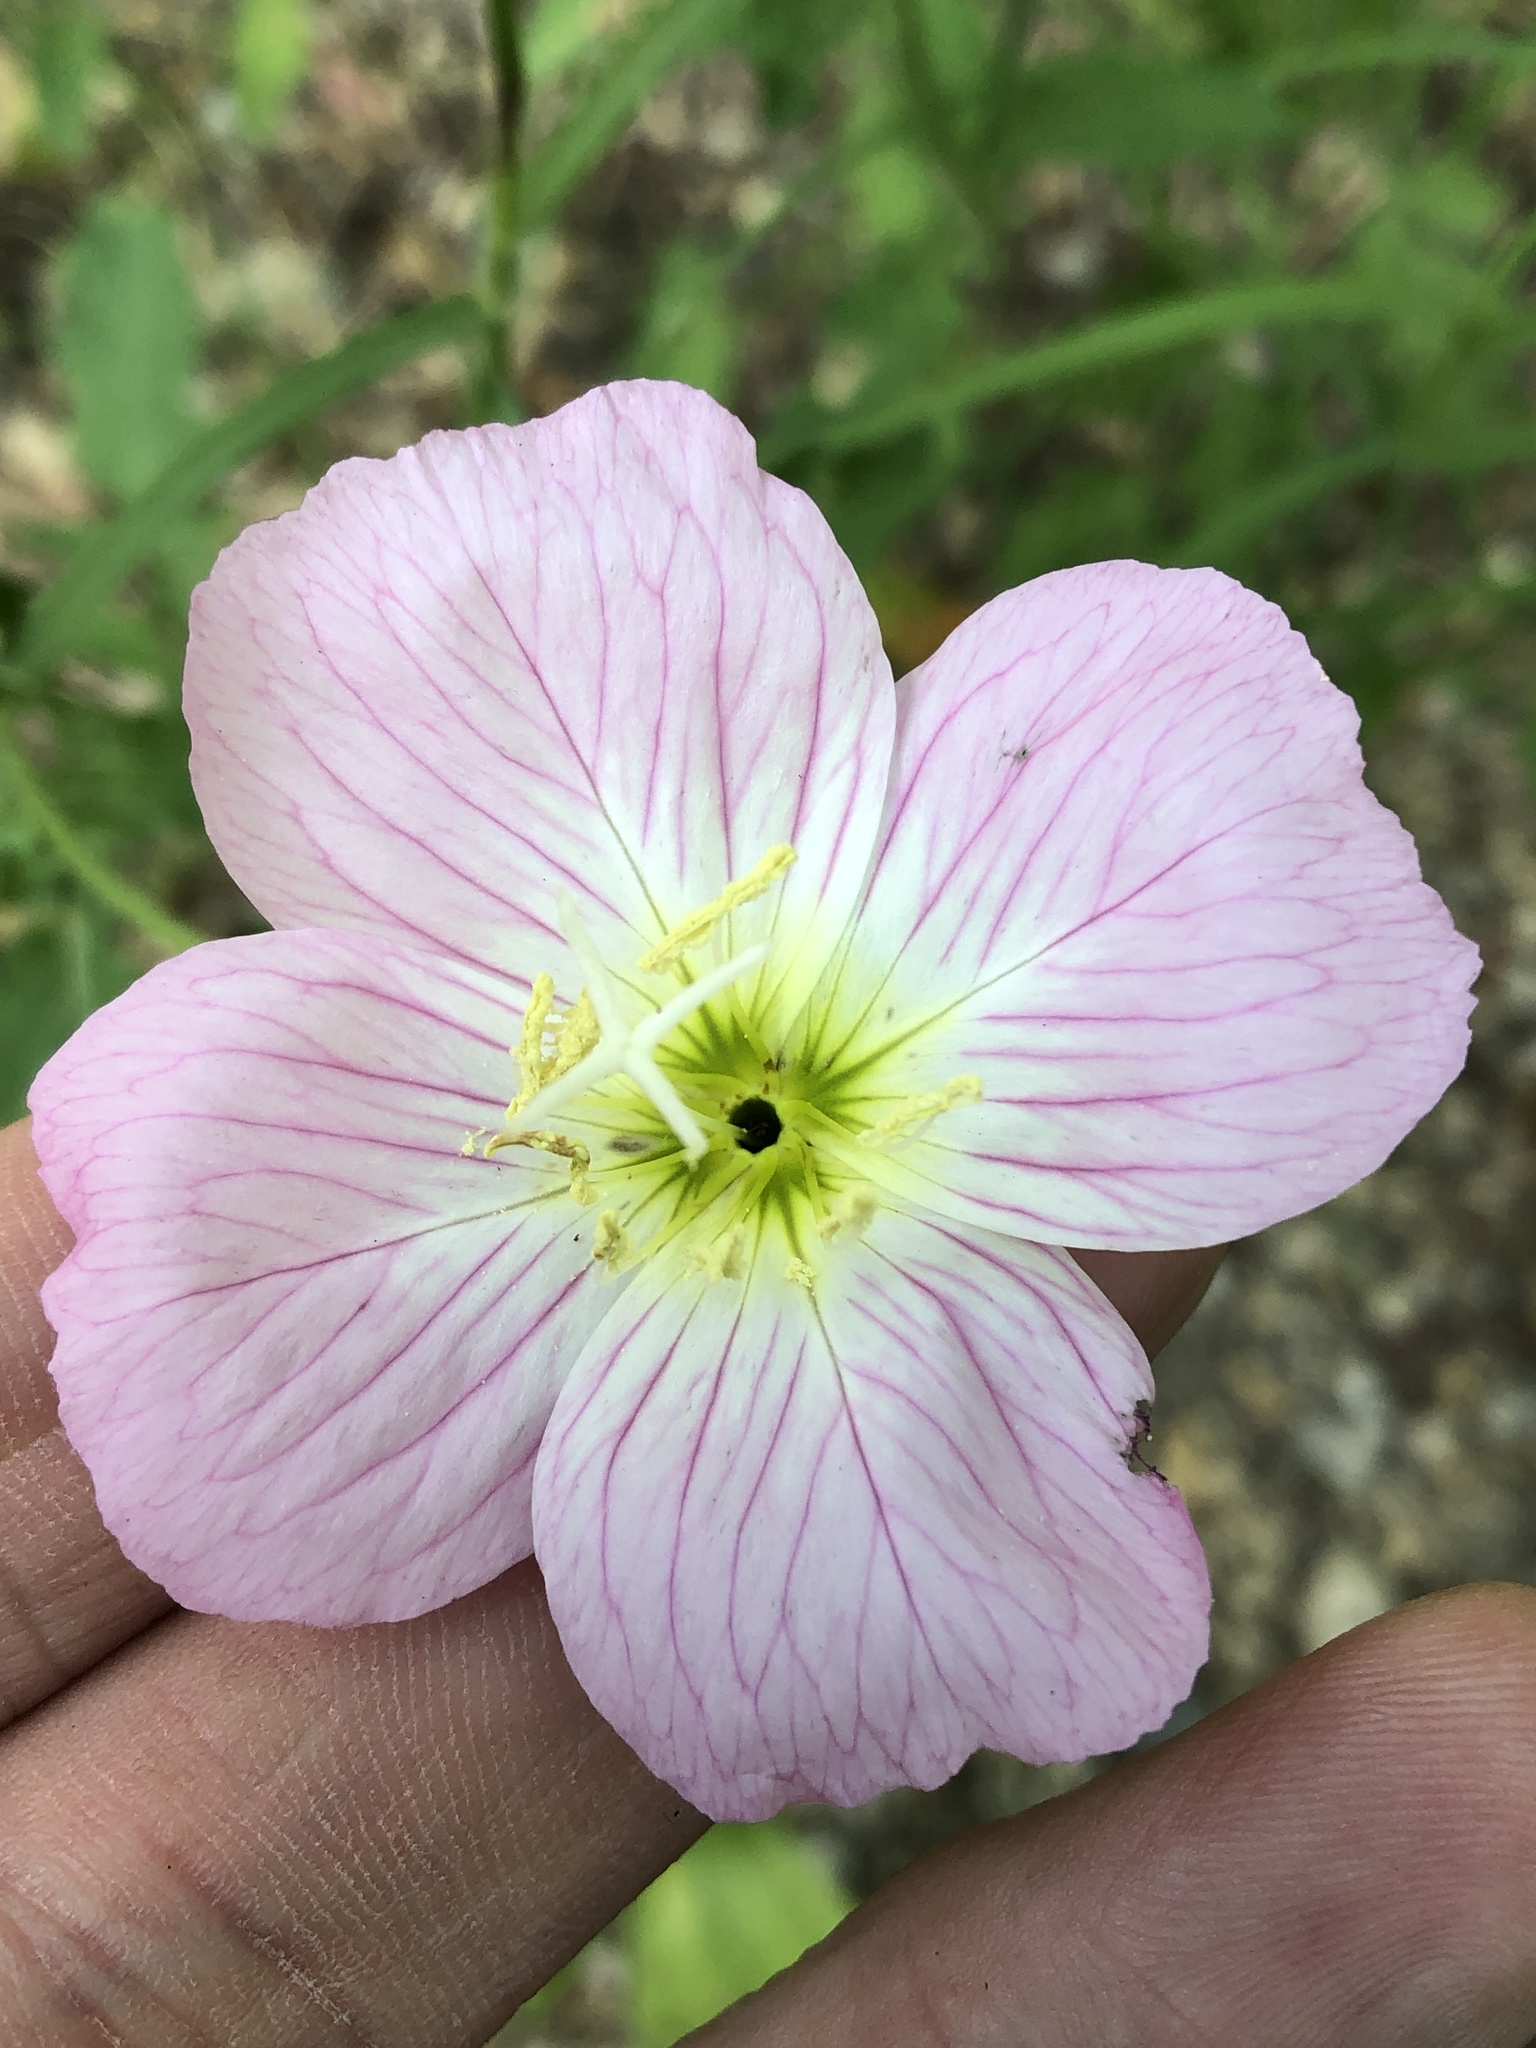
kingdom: Plantae
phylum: Tracheophyta
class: Magnoliopsida
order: Myrtales
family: Onagraceae
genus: Oenothera
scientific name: Oenothera speciosa
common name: White evening-primrose
